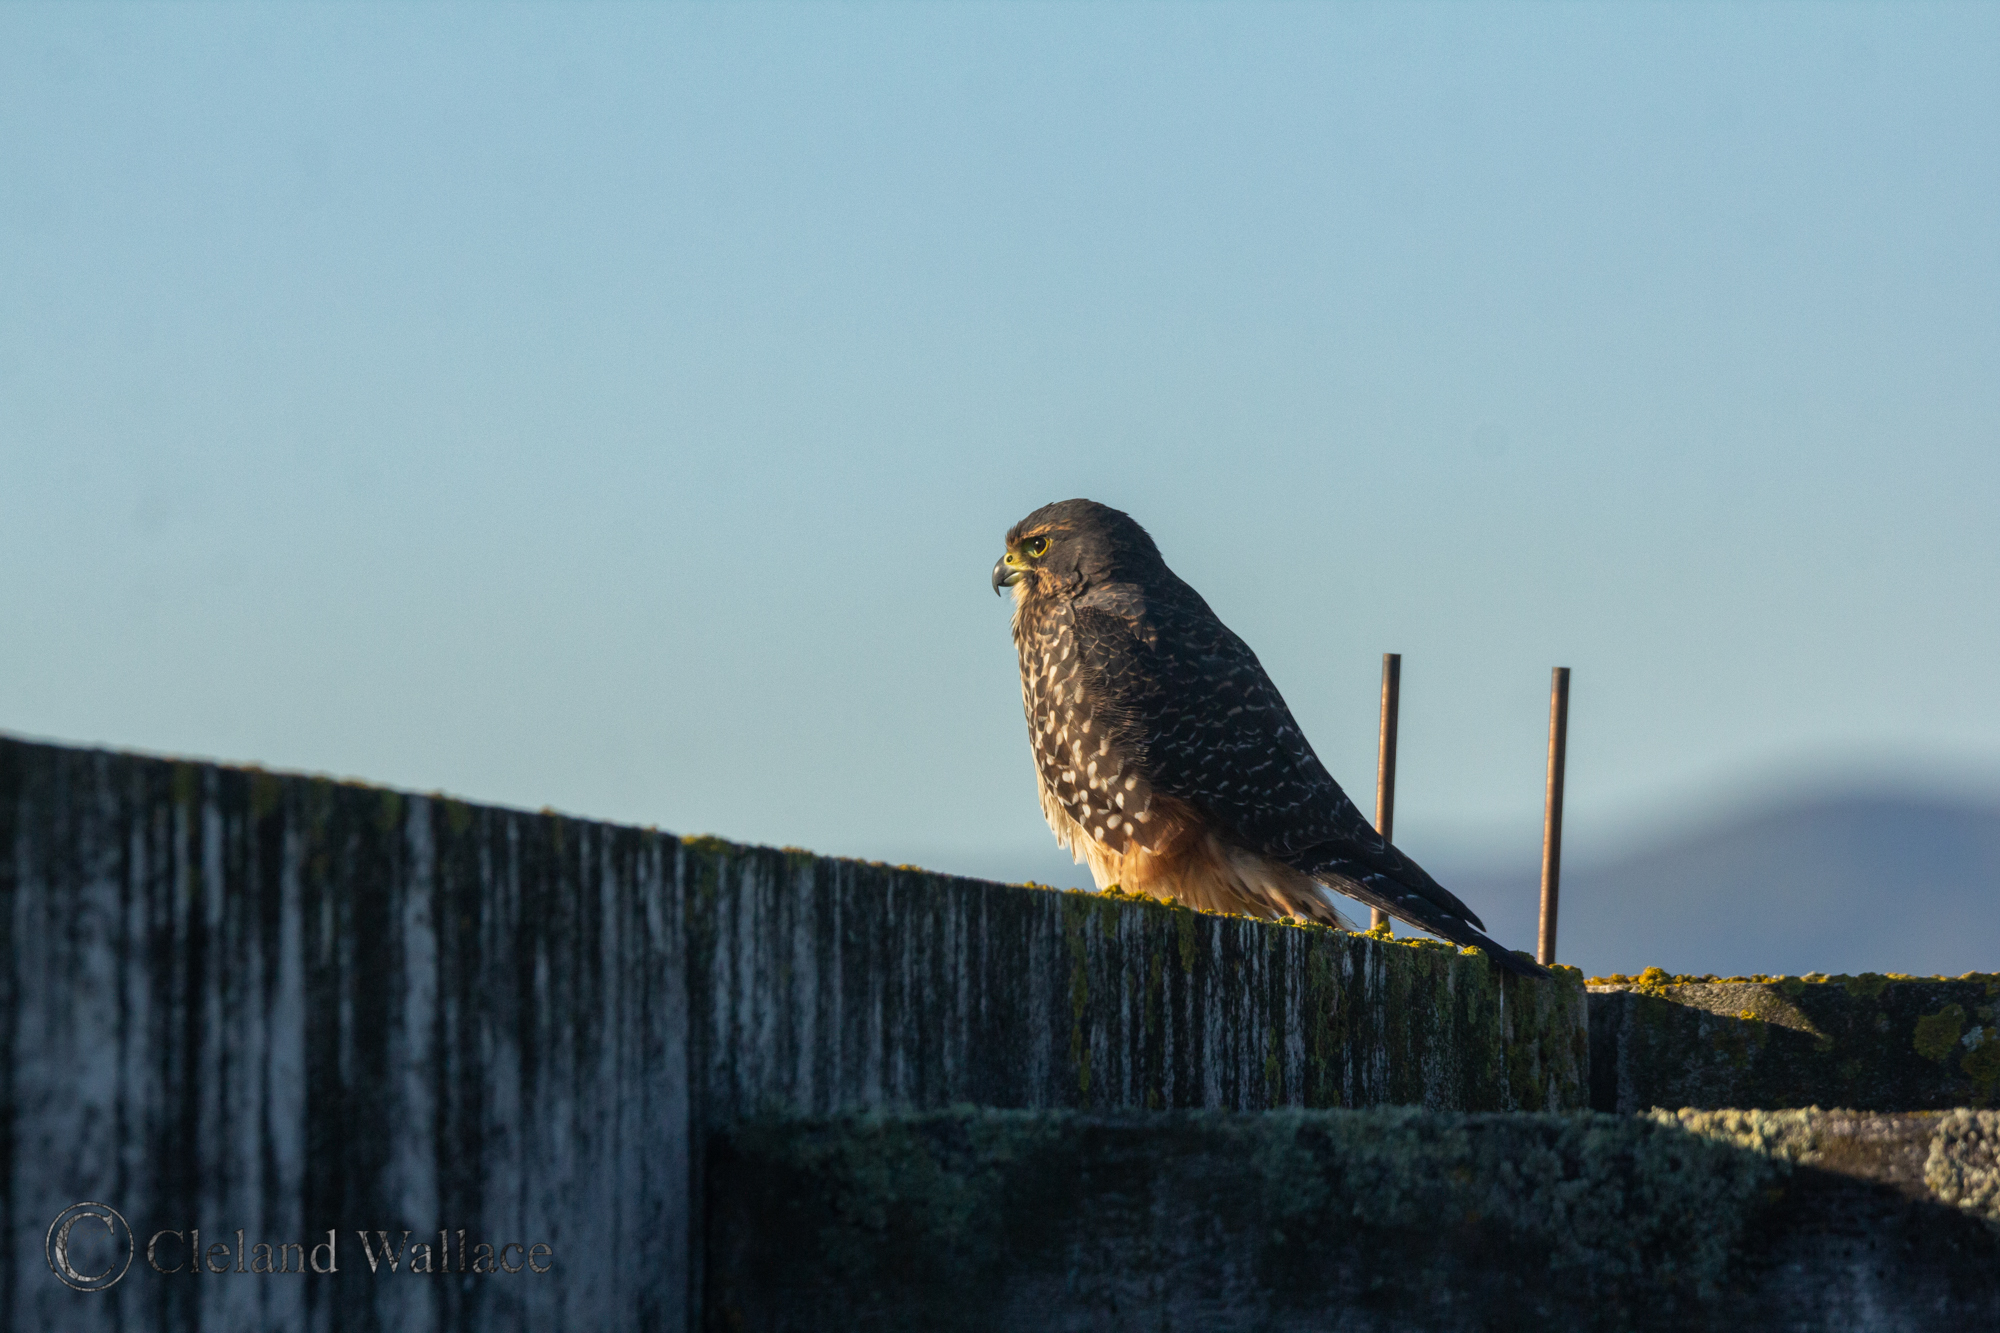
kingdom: Animalia
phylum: Chordata
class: Aves
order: Falconiformes
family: Falconidae
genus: Falco
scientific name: Falco novaeseelandiae
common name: New zealand falcon
